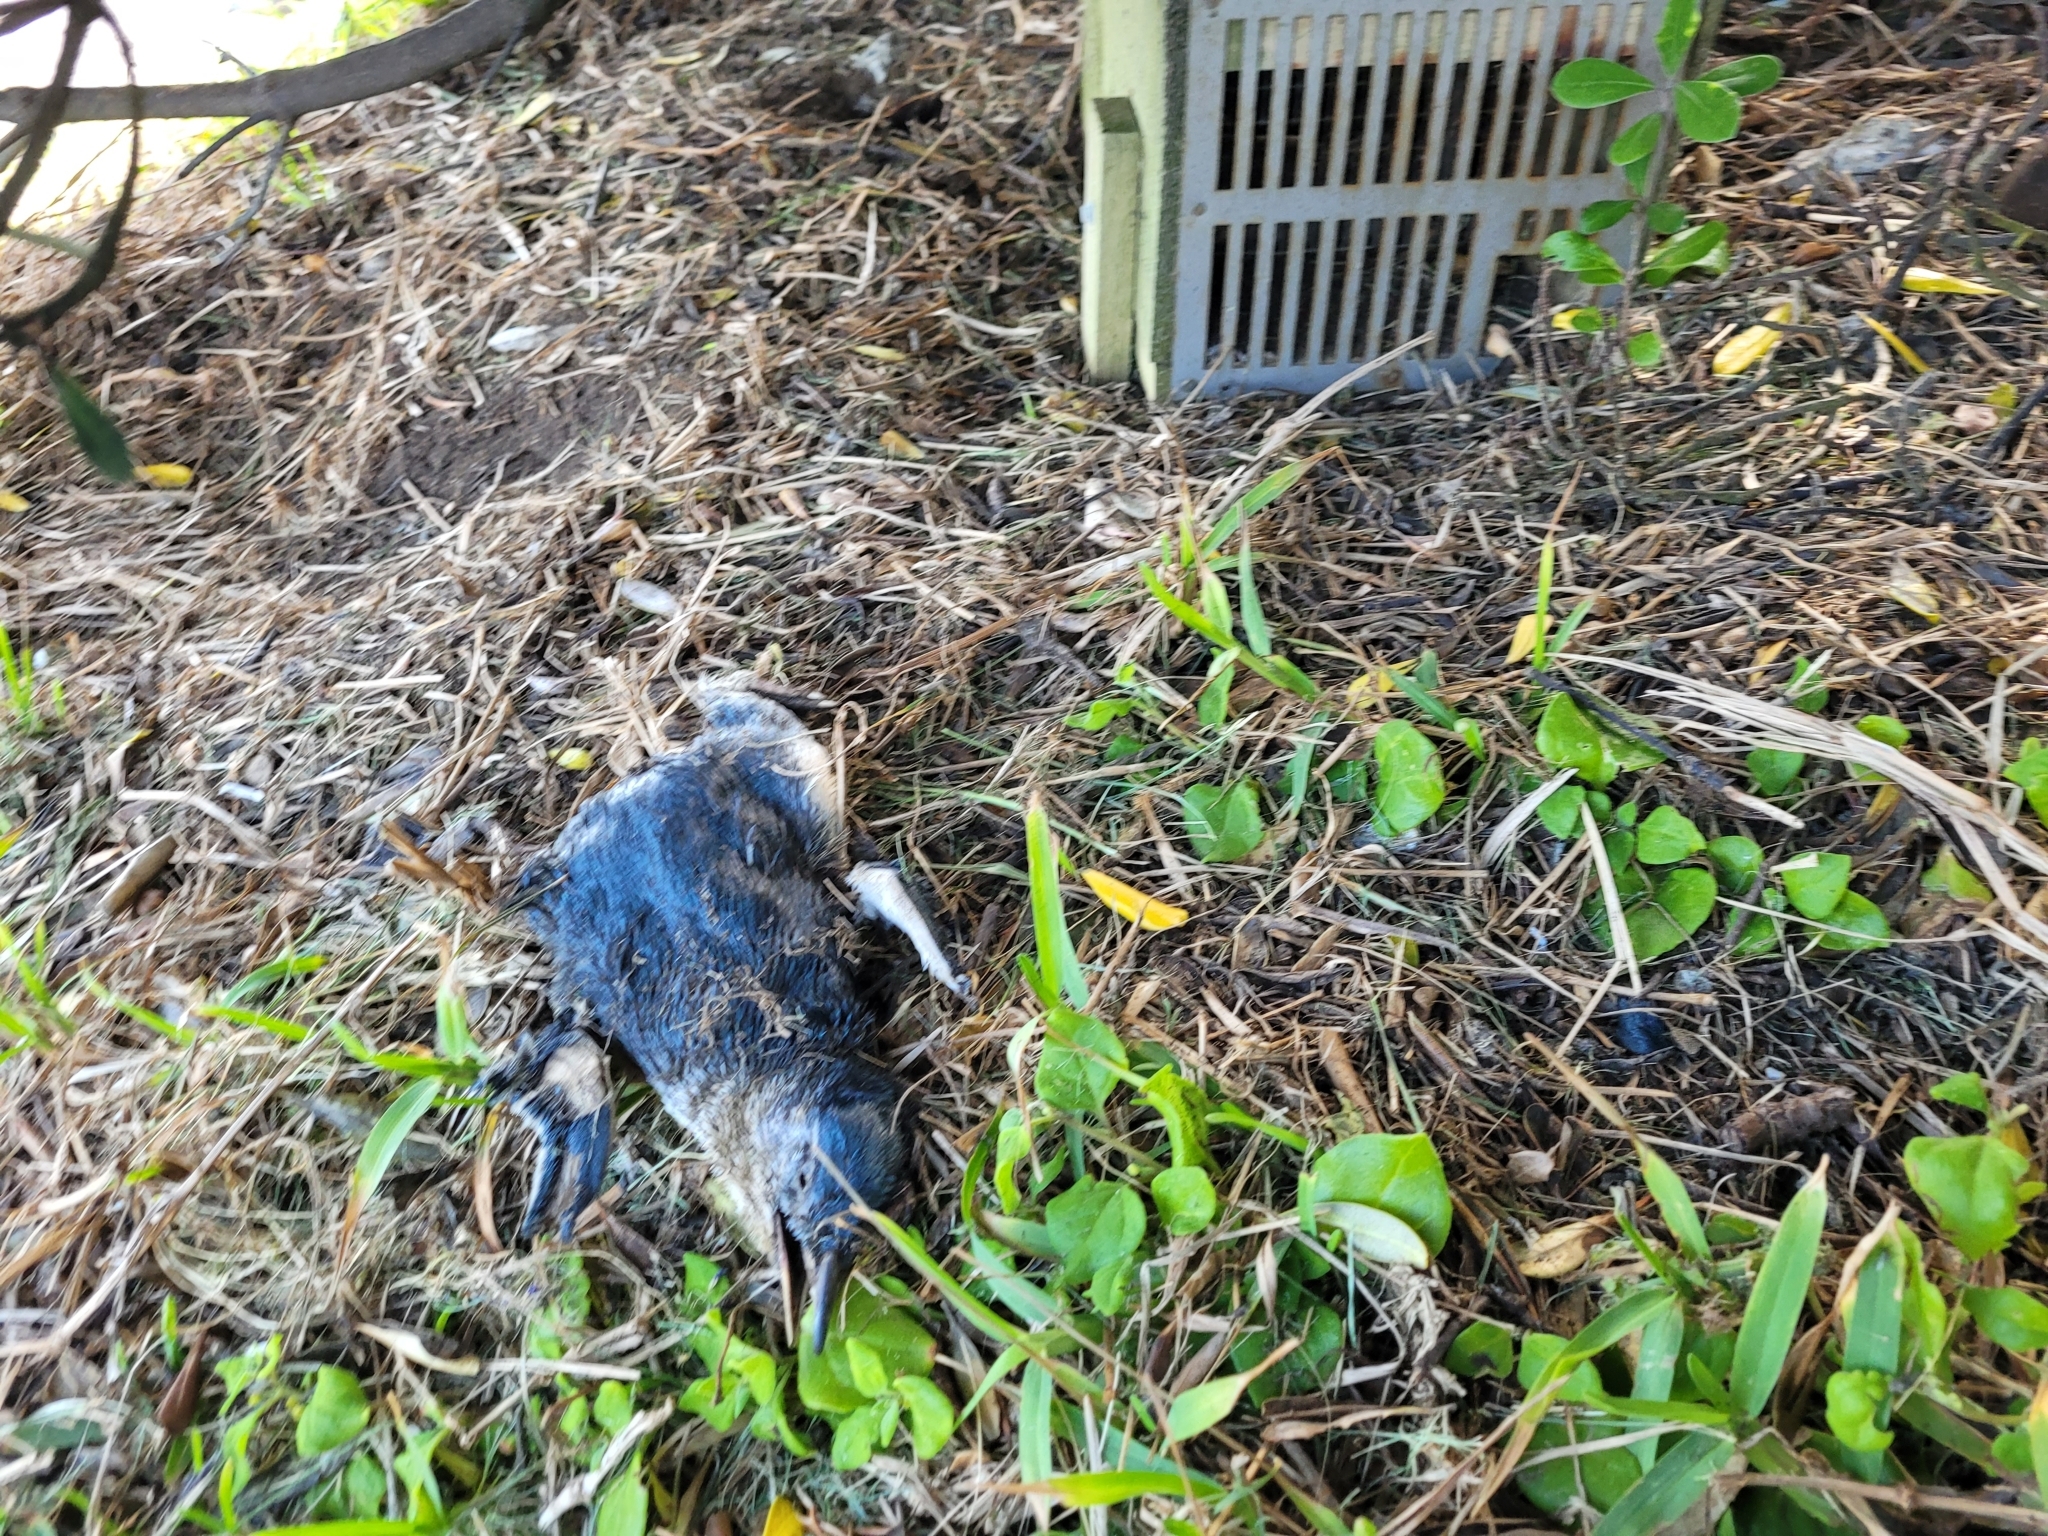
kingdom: Animalia
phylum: Chordata
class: Aves
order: Sphenisciformes
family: Spheniscidae
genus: Eudyptula
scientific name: Eudyptula minor
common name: Little penguin
